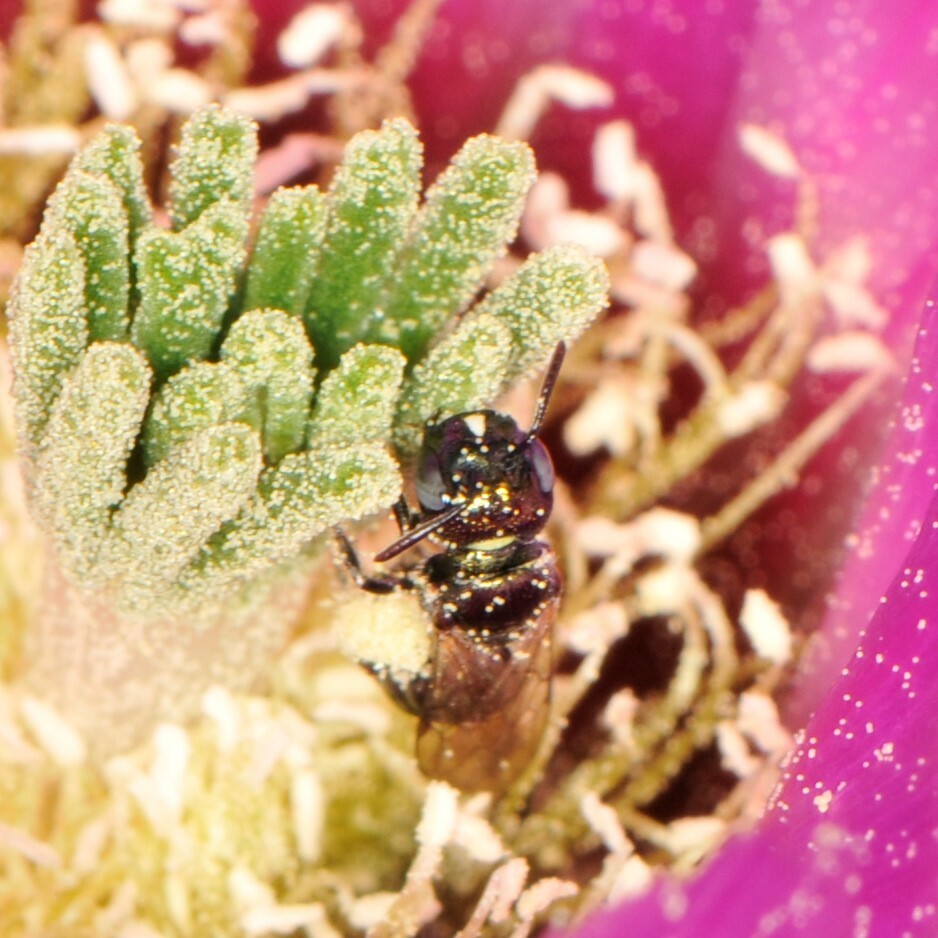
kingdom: Animalia
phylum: Arthropoda
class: Insecta
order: Hymenoptera
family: Apidae
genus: Zadontomerus
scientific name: Zadontomerus
